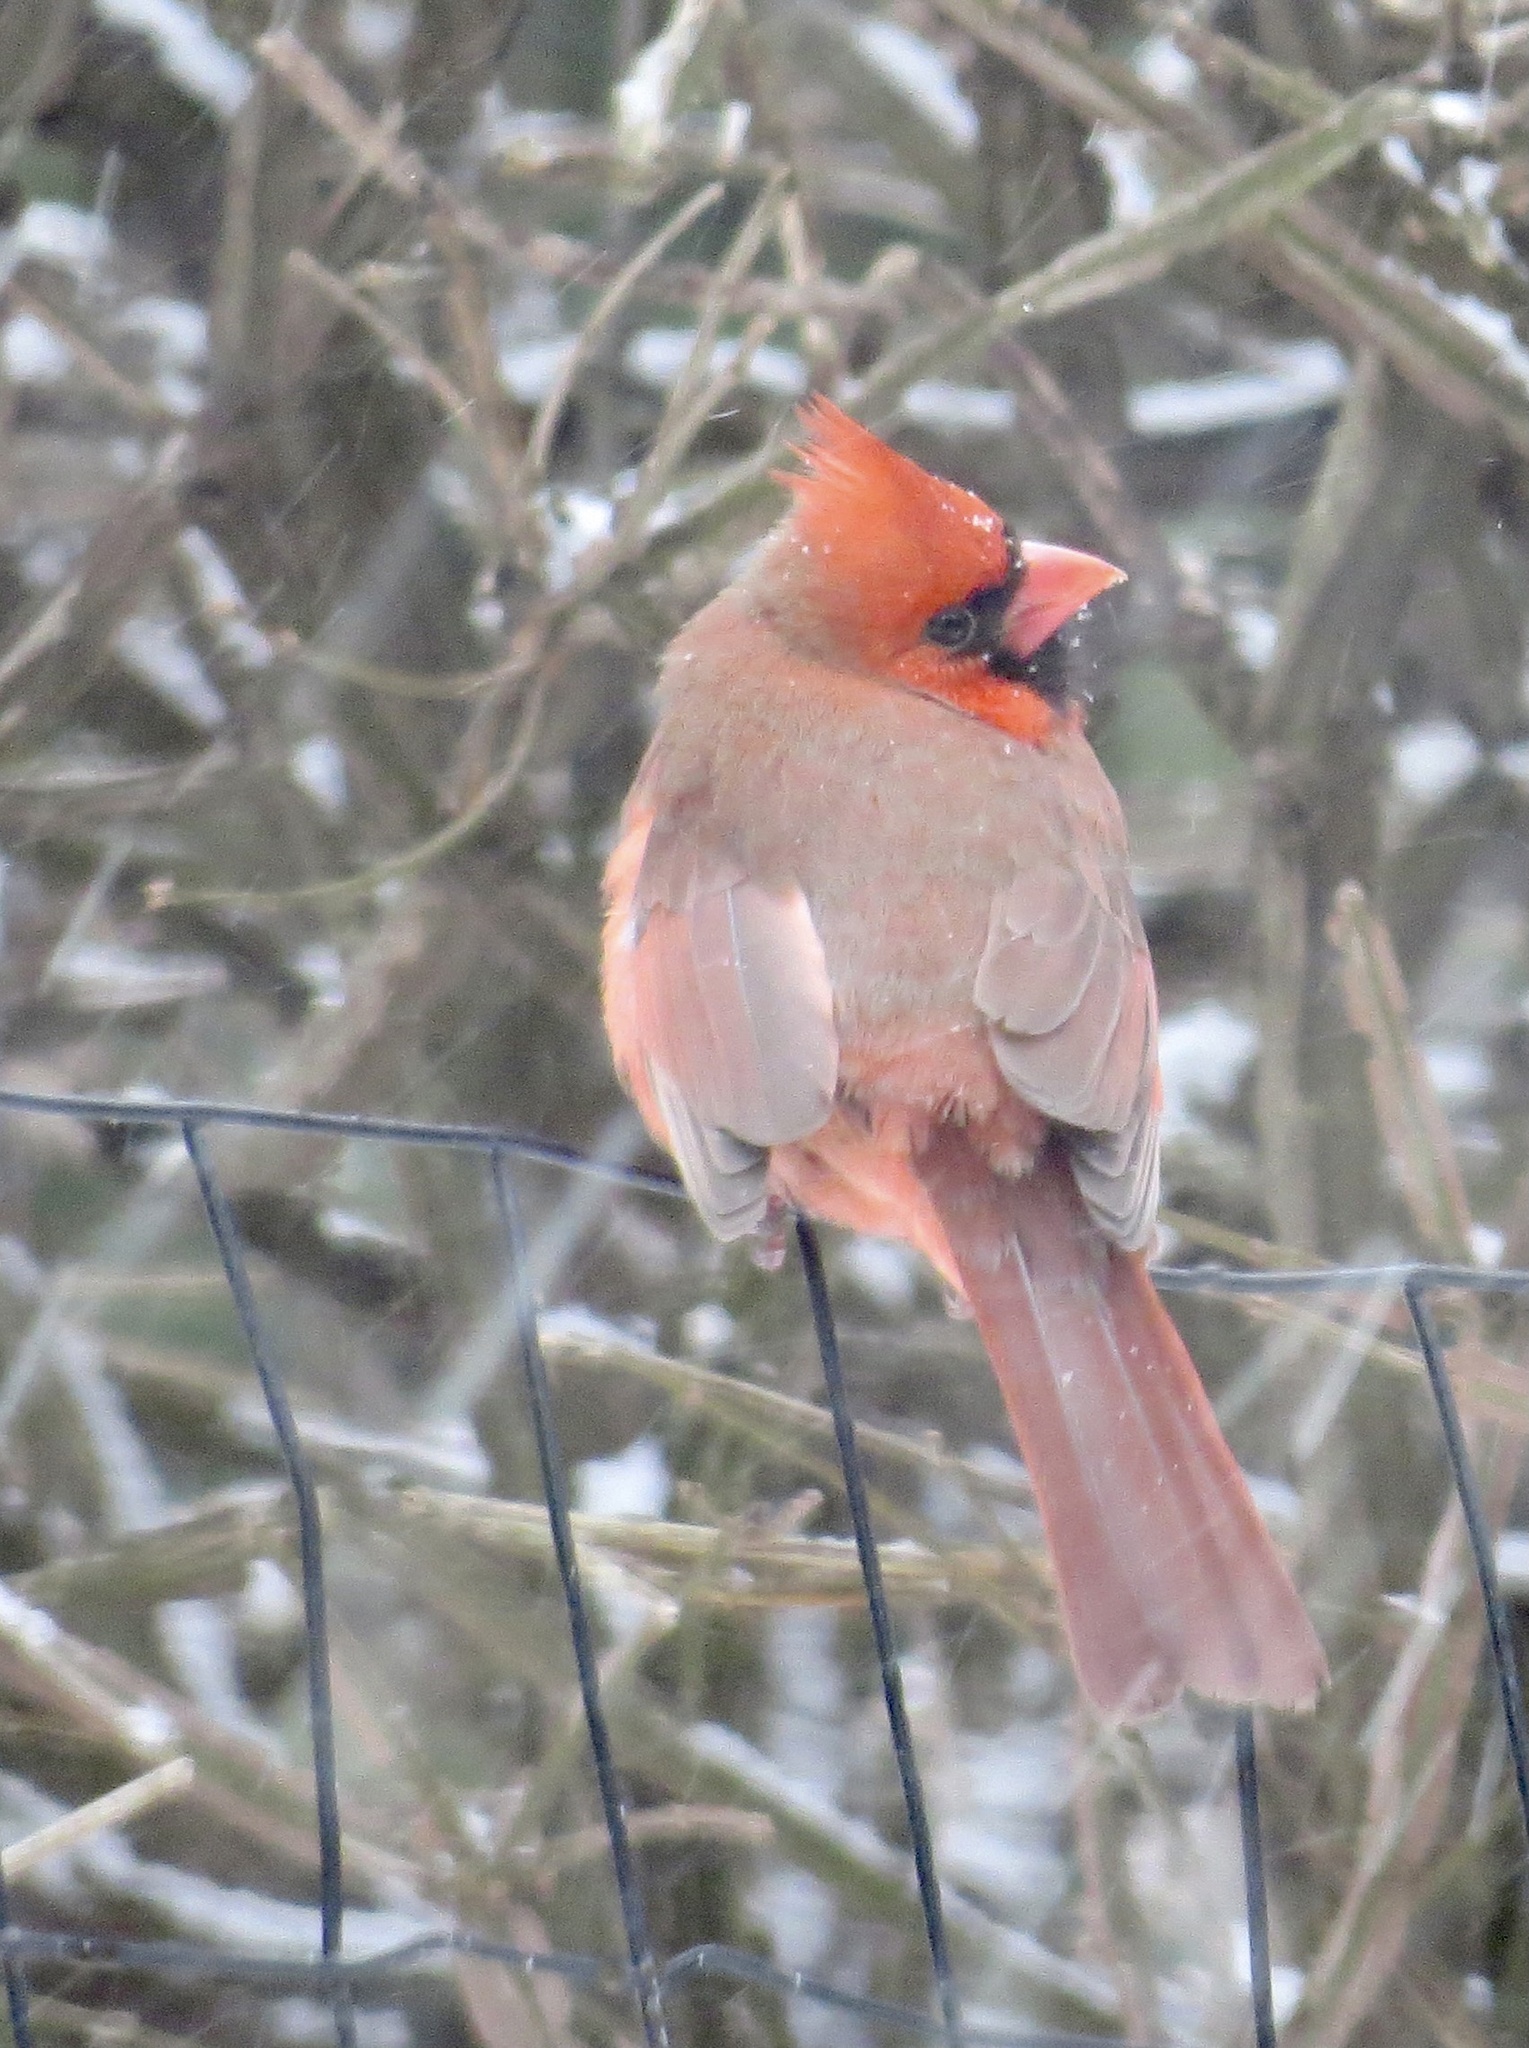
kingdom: Animalia
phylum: Chordata
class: Aves
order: Passeriformes
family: Cardinalidae
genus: Cardinalis
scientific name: Cardinalis cardinalis
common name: Northern cardinal
